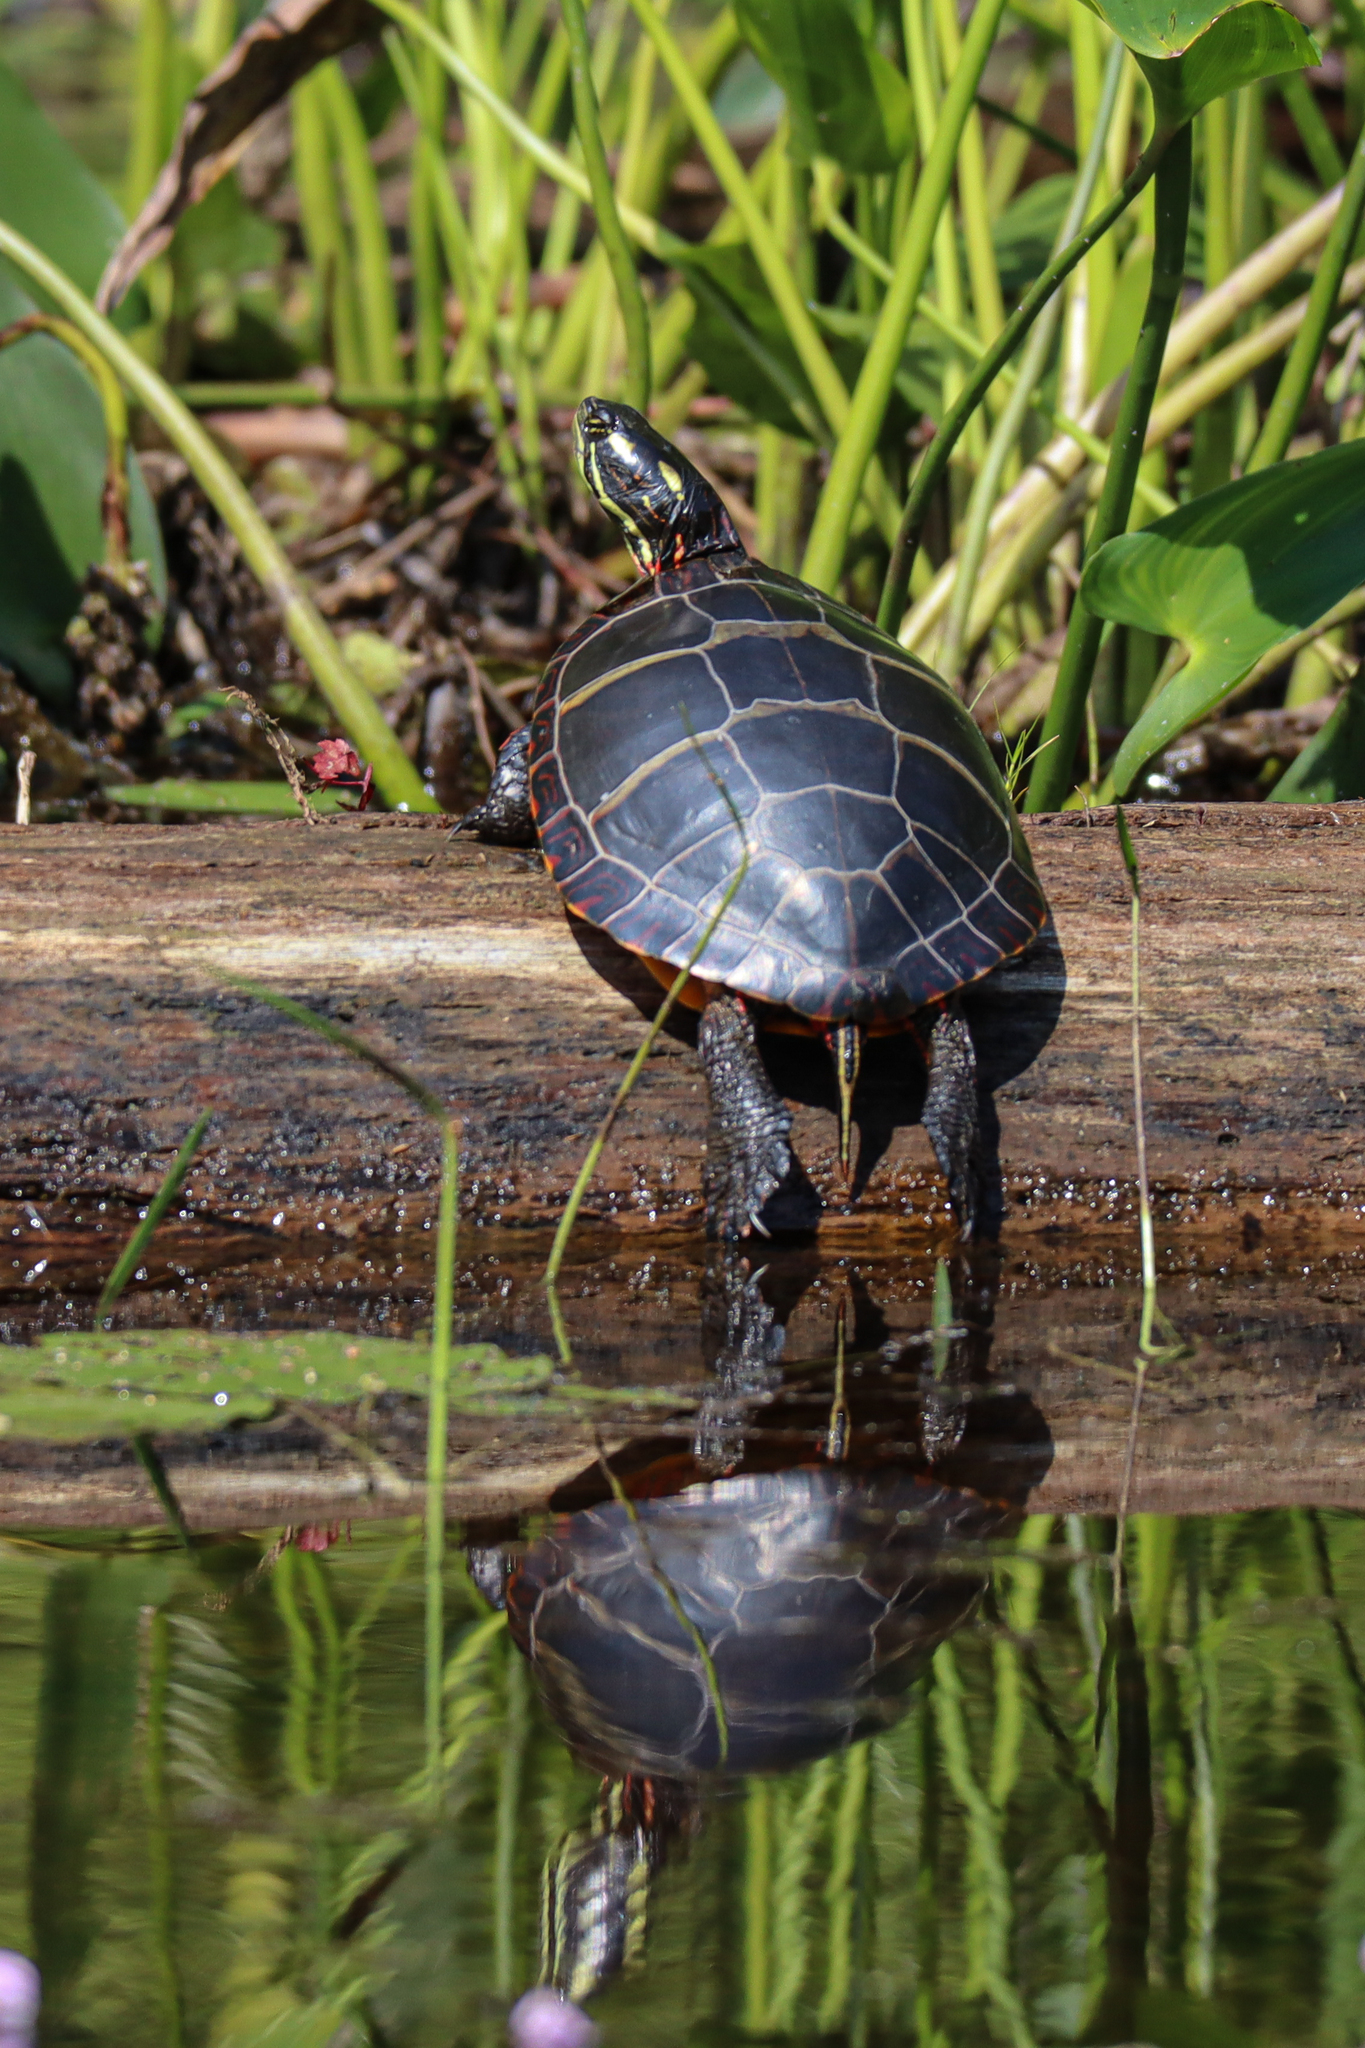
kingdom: Animalia
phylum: Chordata
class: Testudines
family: Emydidae
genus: Chrysemys
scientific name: Chrysemys picta
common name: Painted turtle
